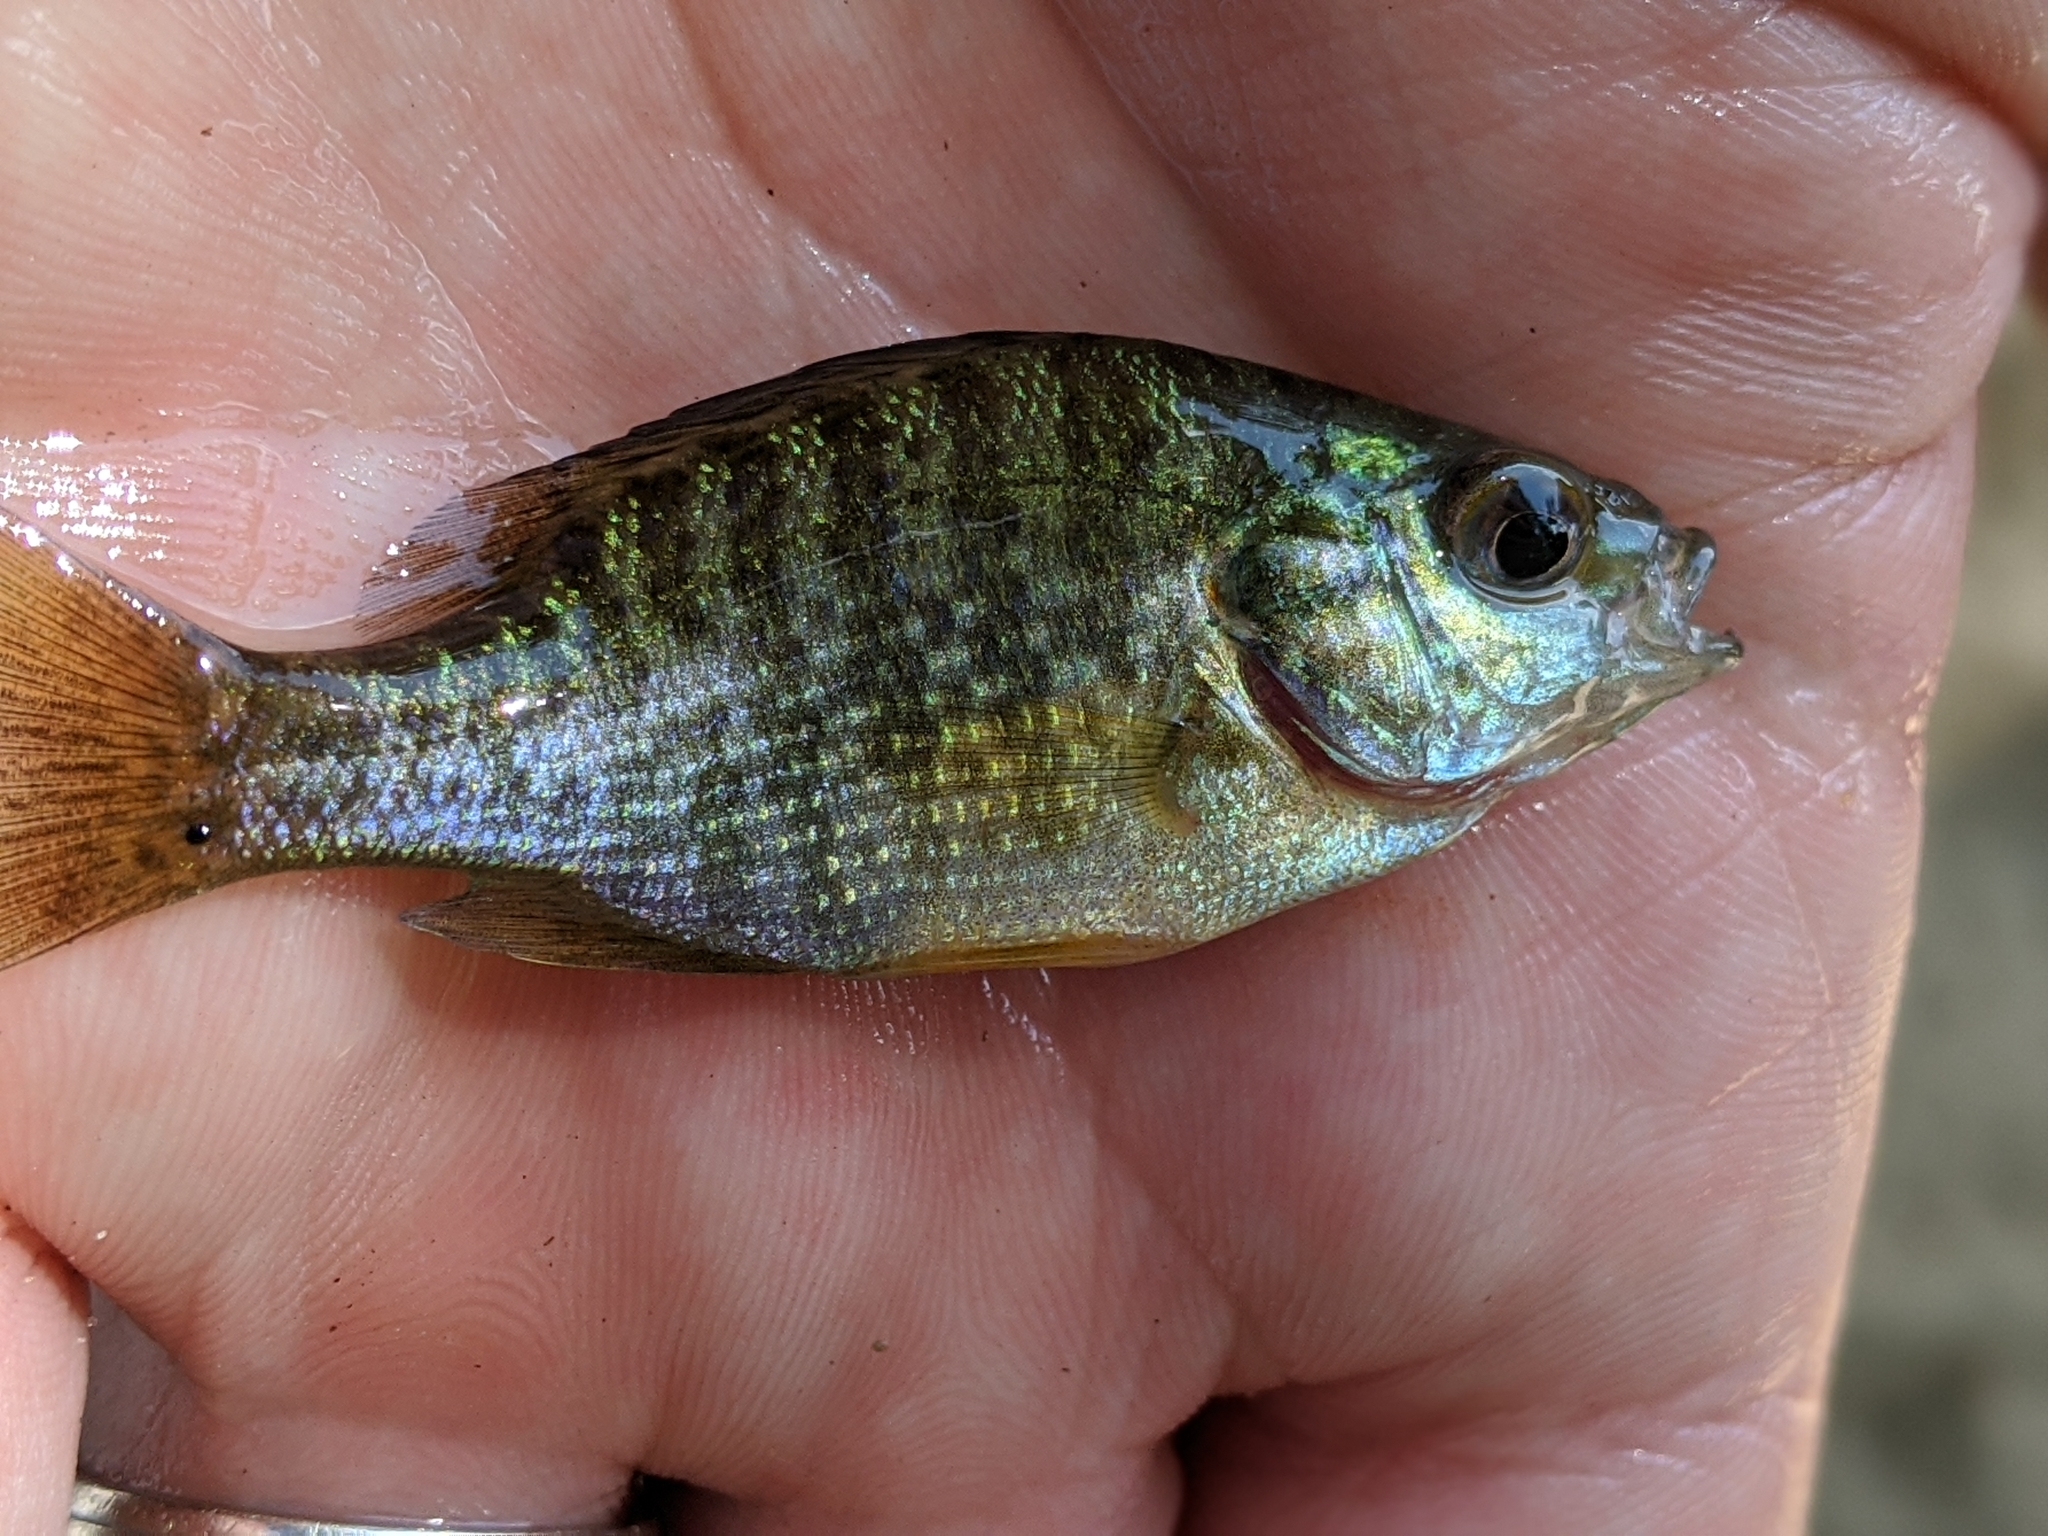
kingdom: Animalia
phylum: Chordata
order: Perciformes
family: Centrarchidae
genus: Lepomis
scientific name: Lepomis gibbosus
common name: Pumpkinseed
